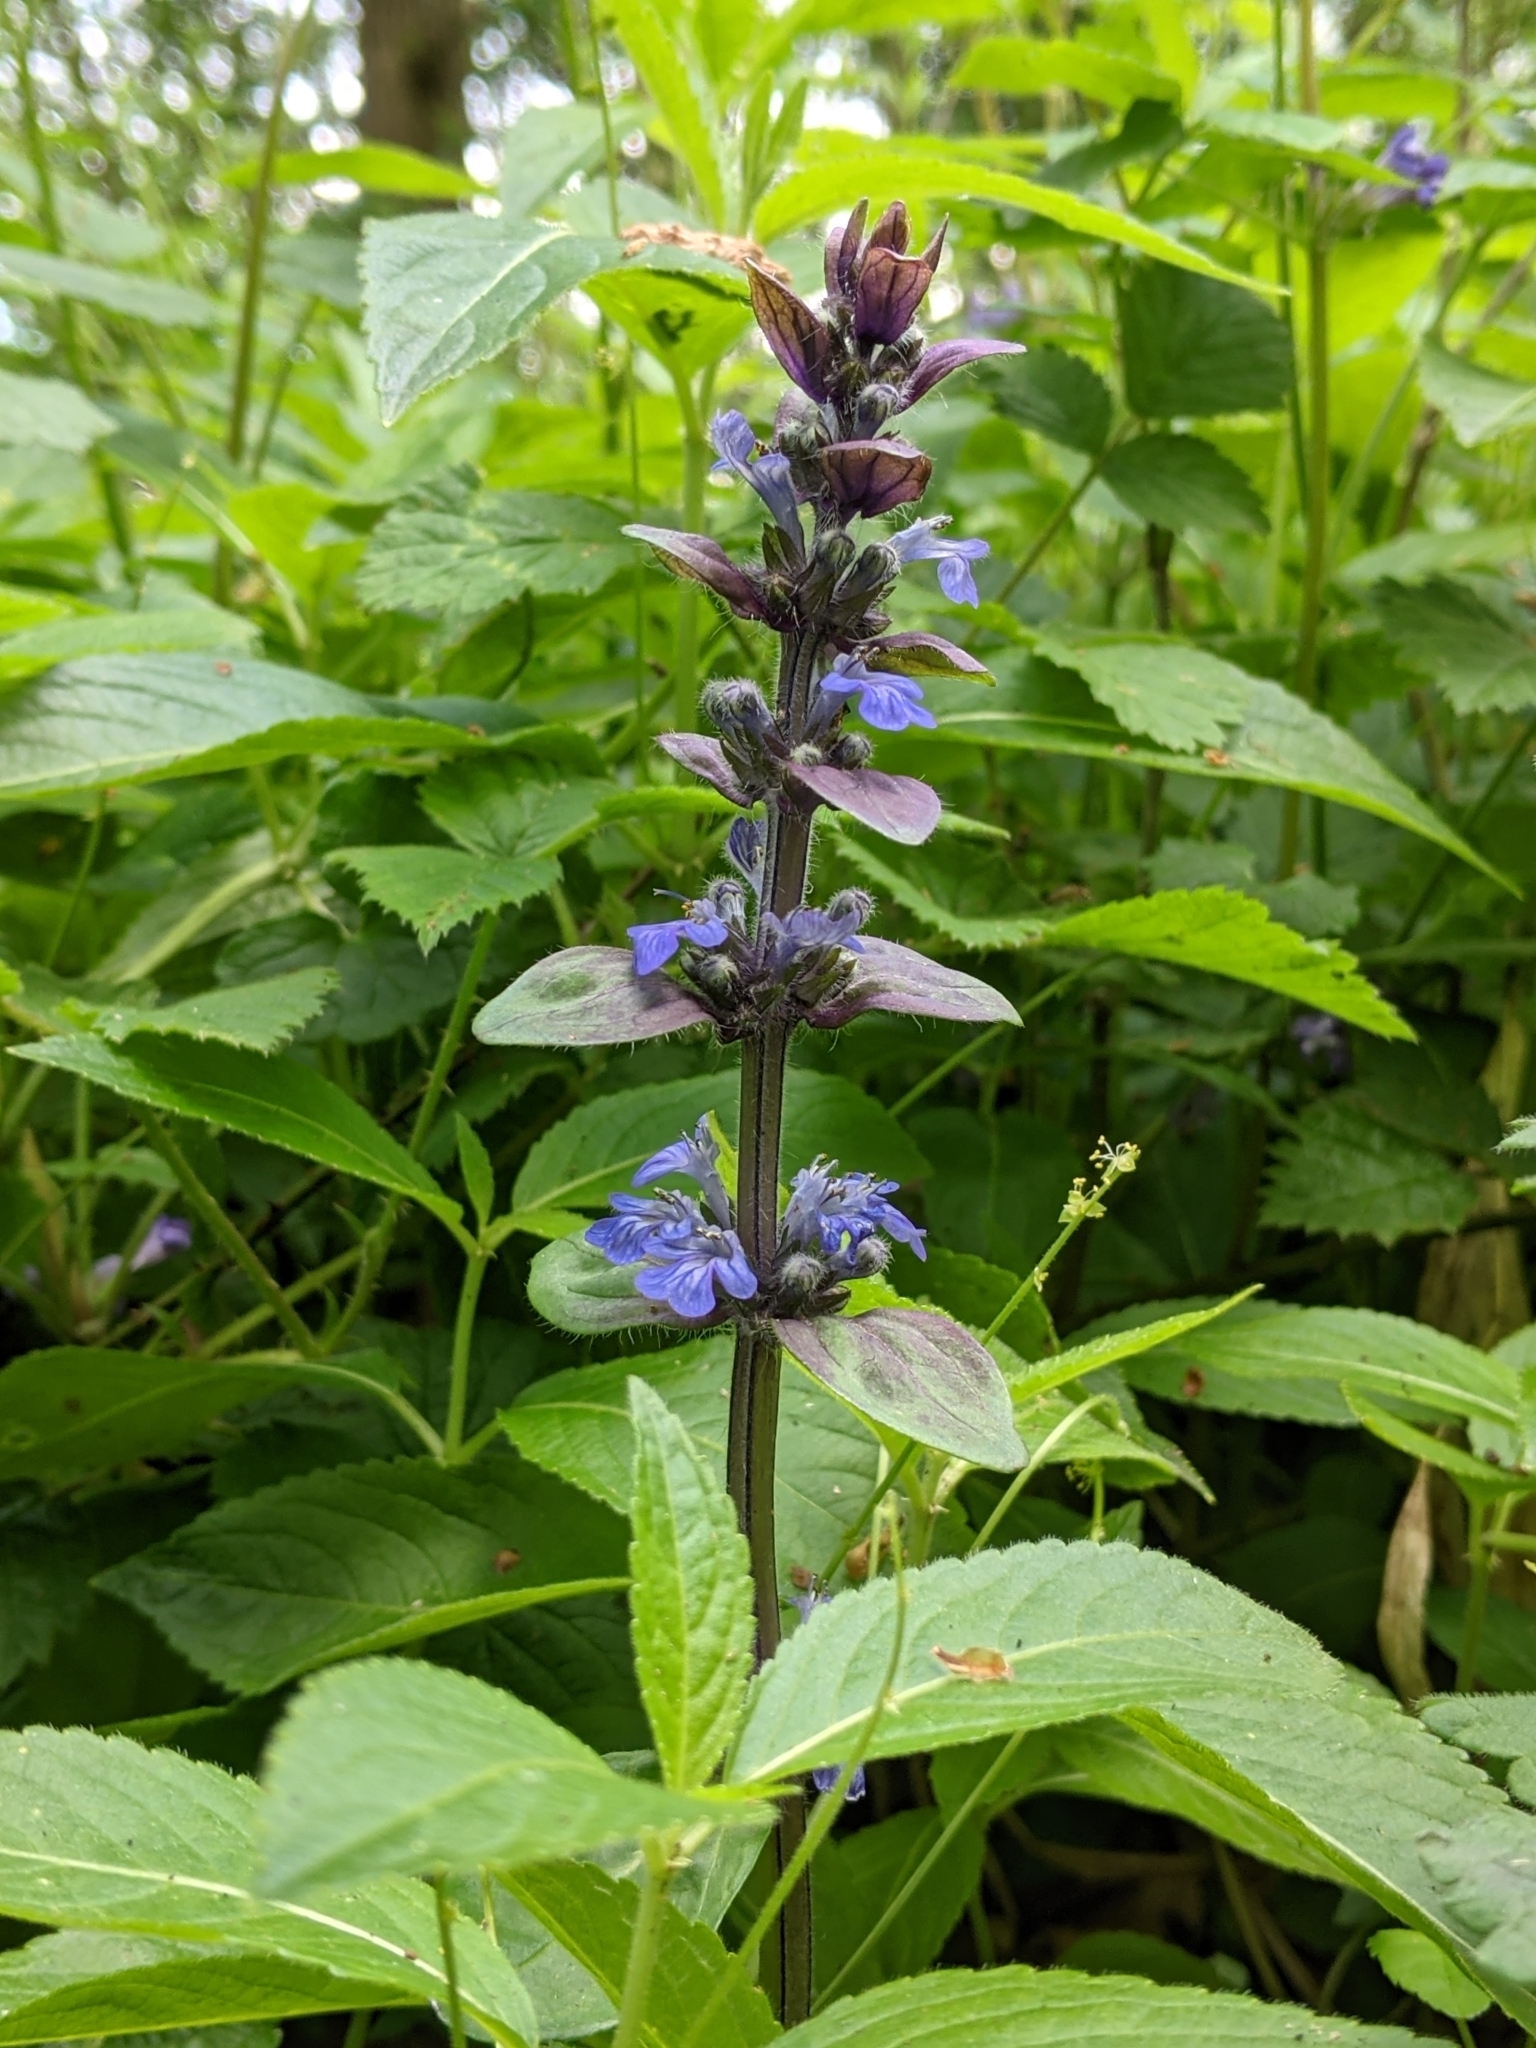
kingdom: Plantae
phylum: Tracheophyta
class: Magnoliopsida
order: Lamiales
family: Lamiaceae
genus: Ajuga
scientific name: Ajuga reptans
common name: Bugle
